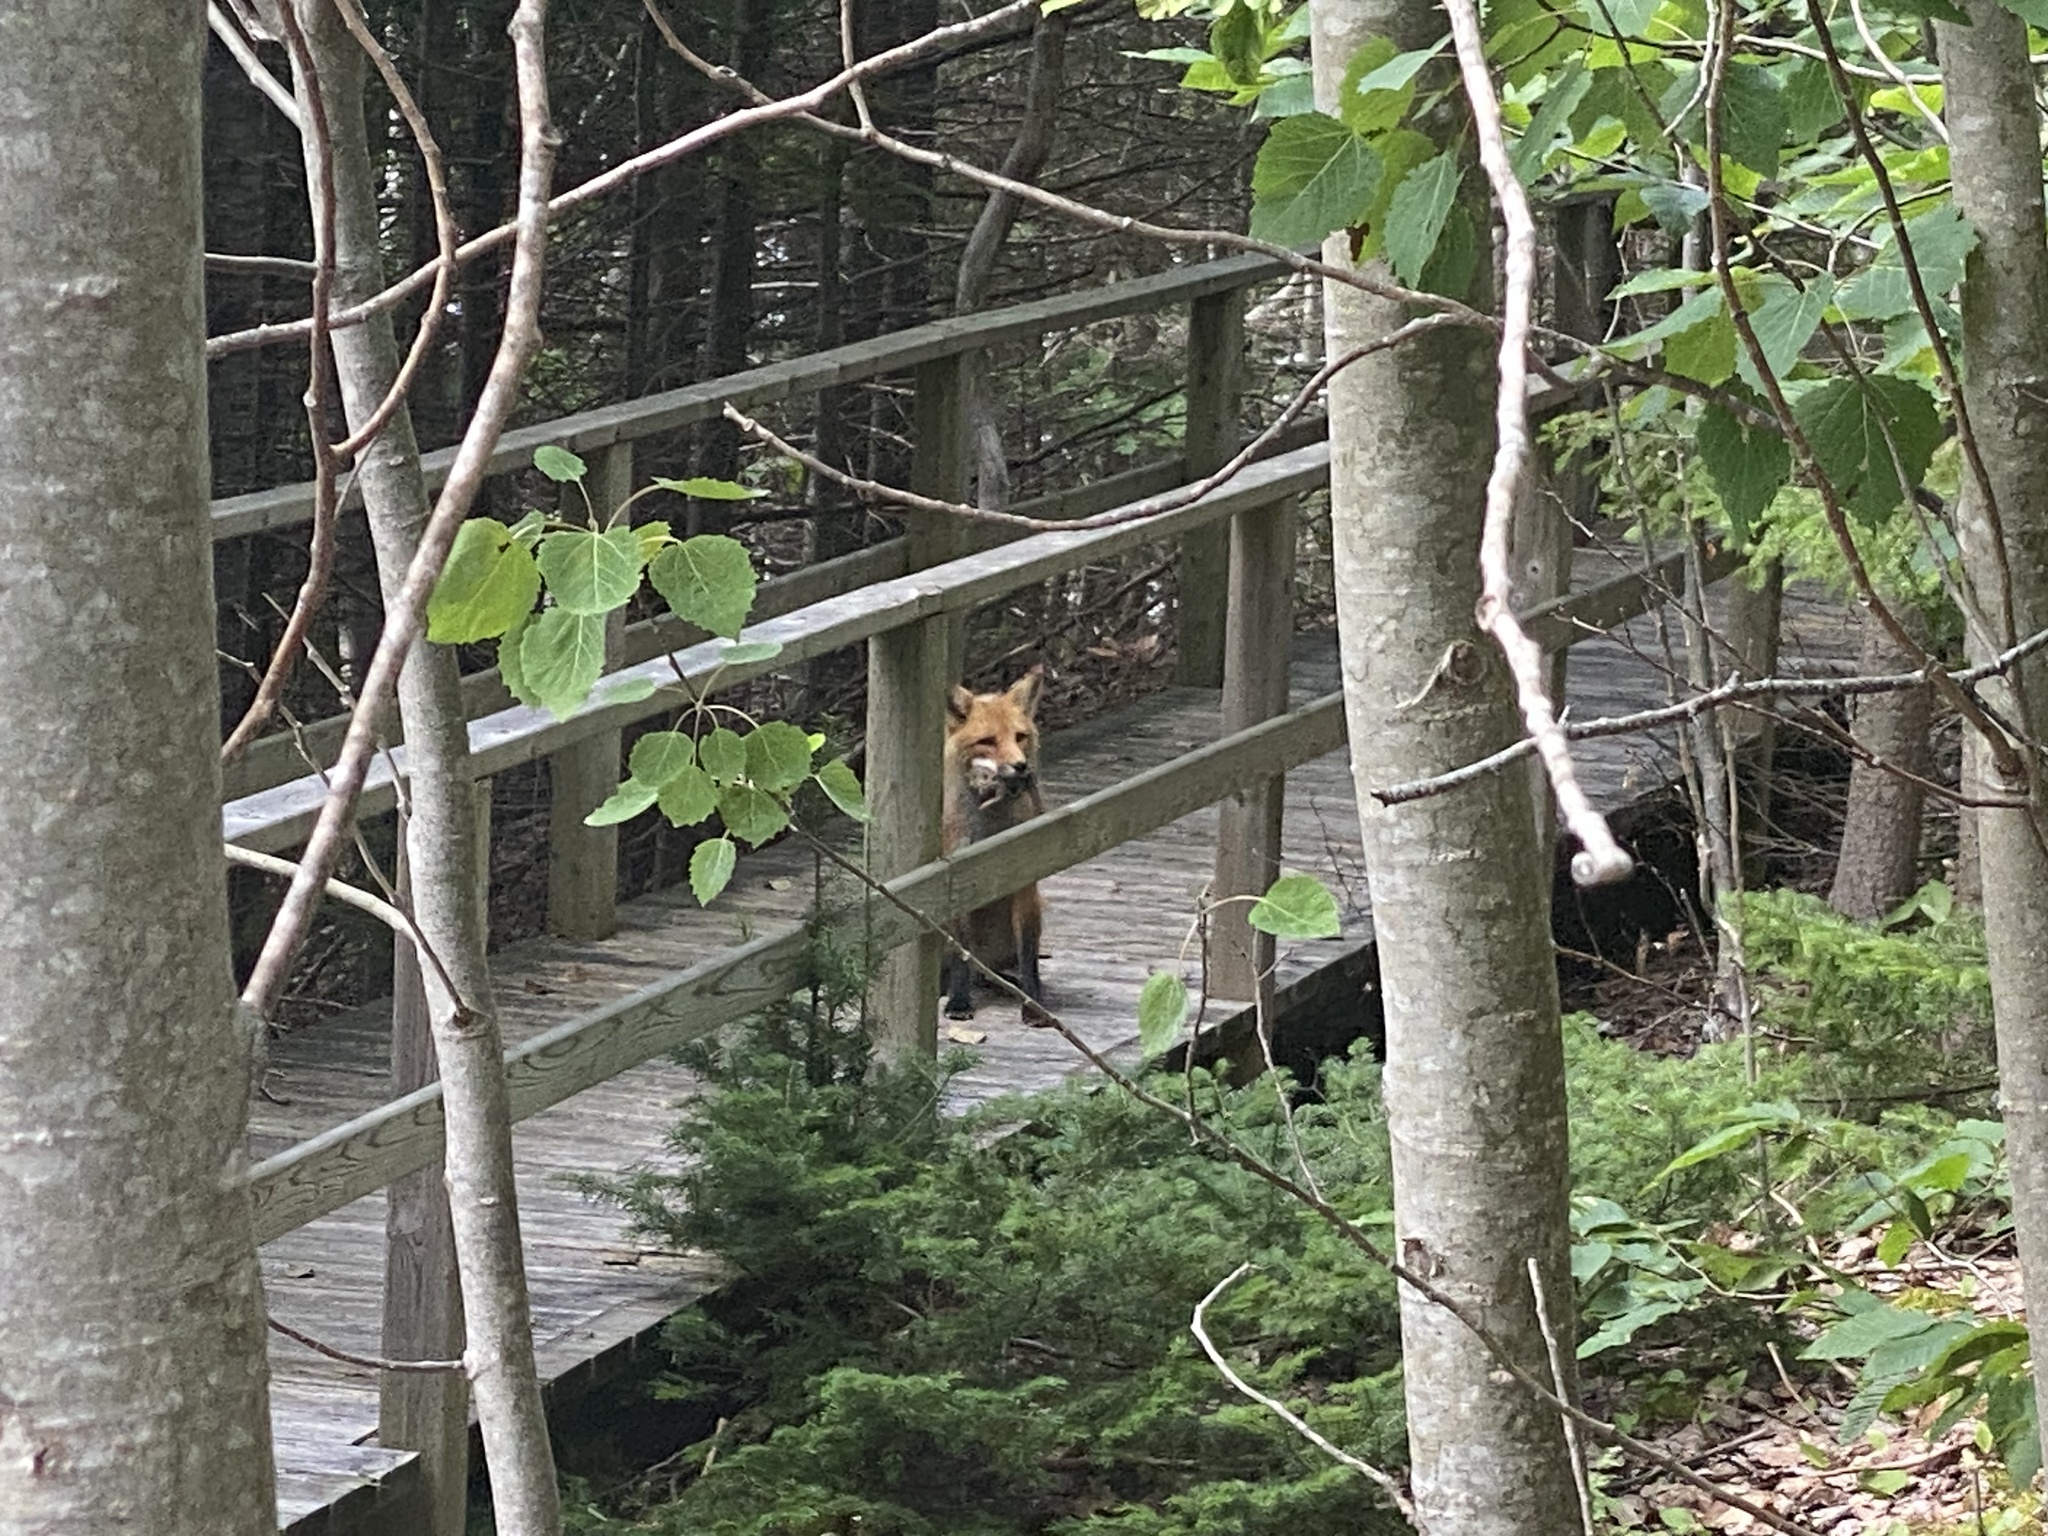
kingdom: Animalia
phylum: Chordata
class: Mammalia
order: Carnivora
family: Canidae
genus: Vulpes
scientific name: Vulpes vulpes
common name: Red fox
